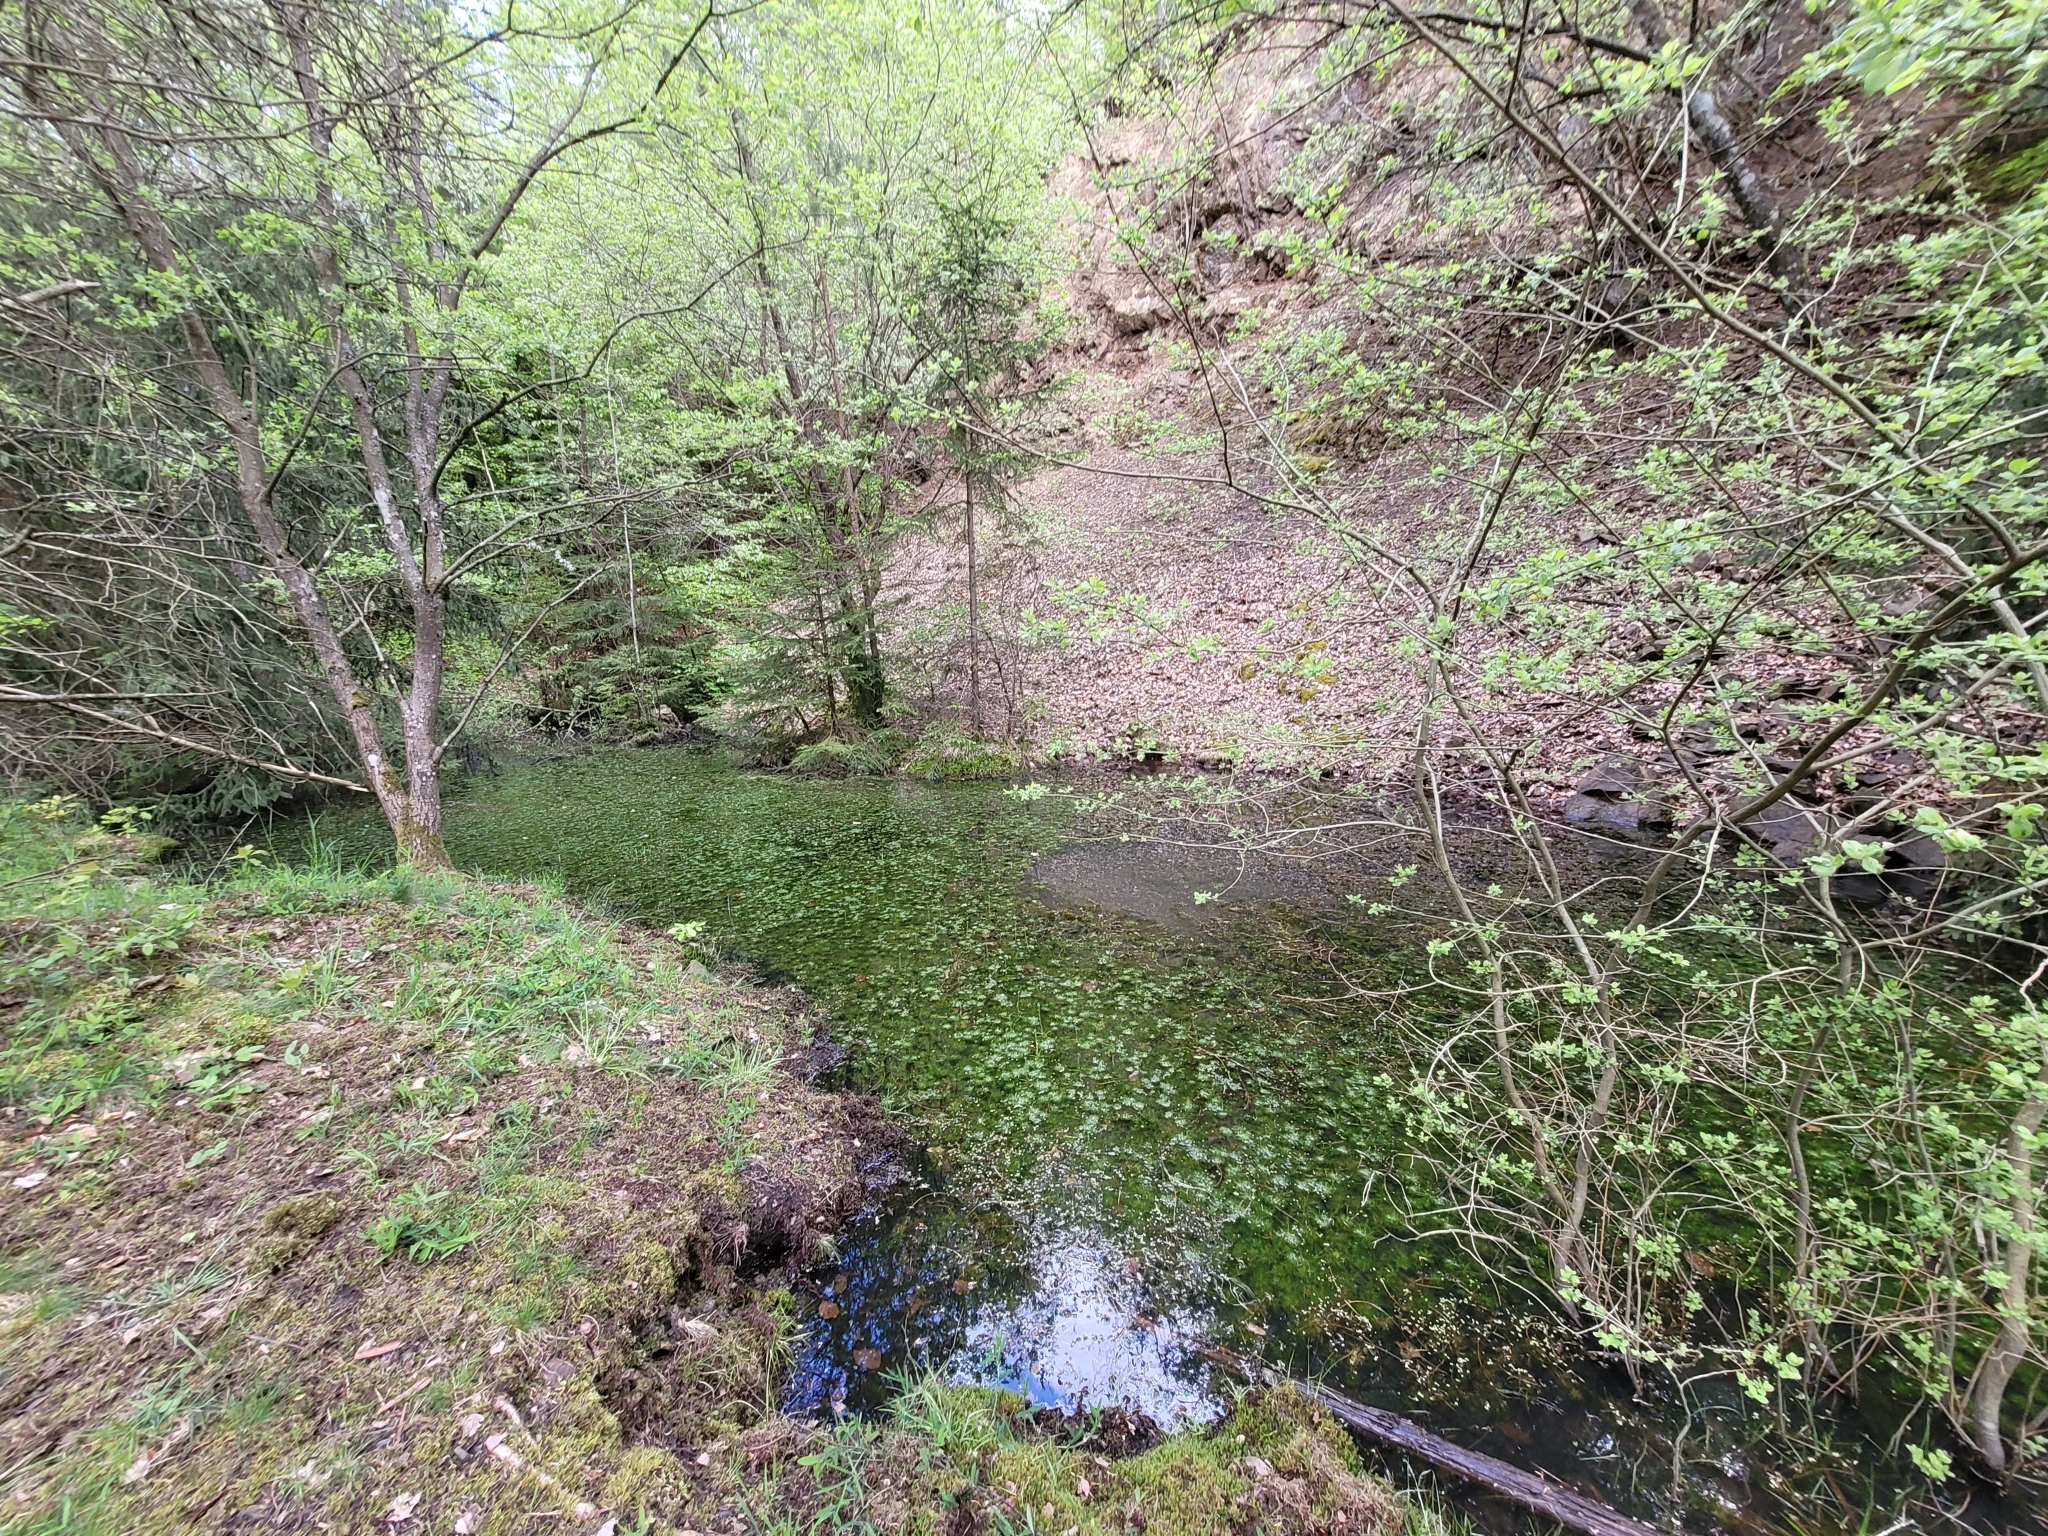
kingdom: Plantae
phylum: Tracheophyta
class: Magnoliopsida
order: Ericales
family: Primulaceae
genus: Hottonia
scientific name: Hottonia palustris
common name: Water-violet
